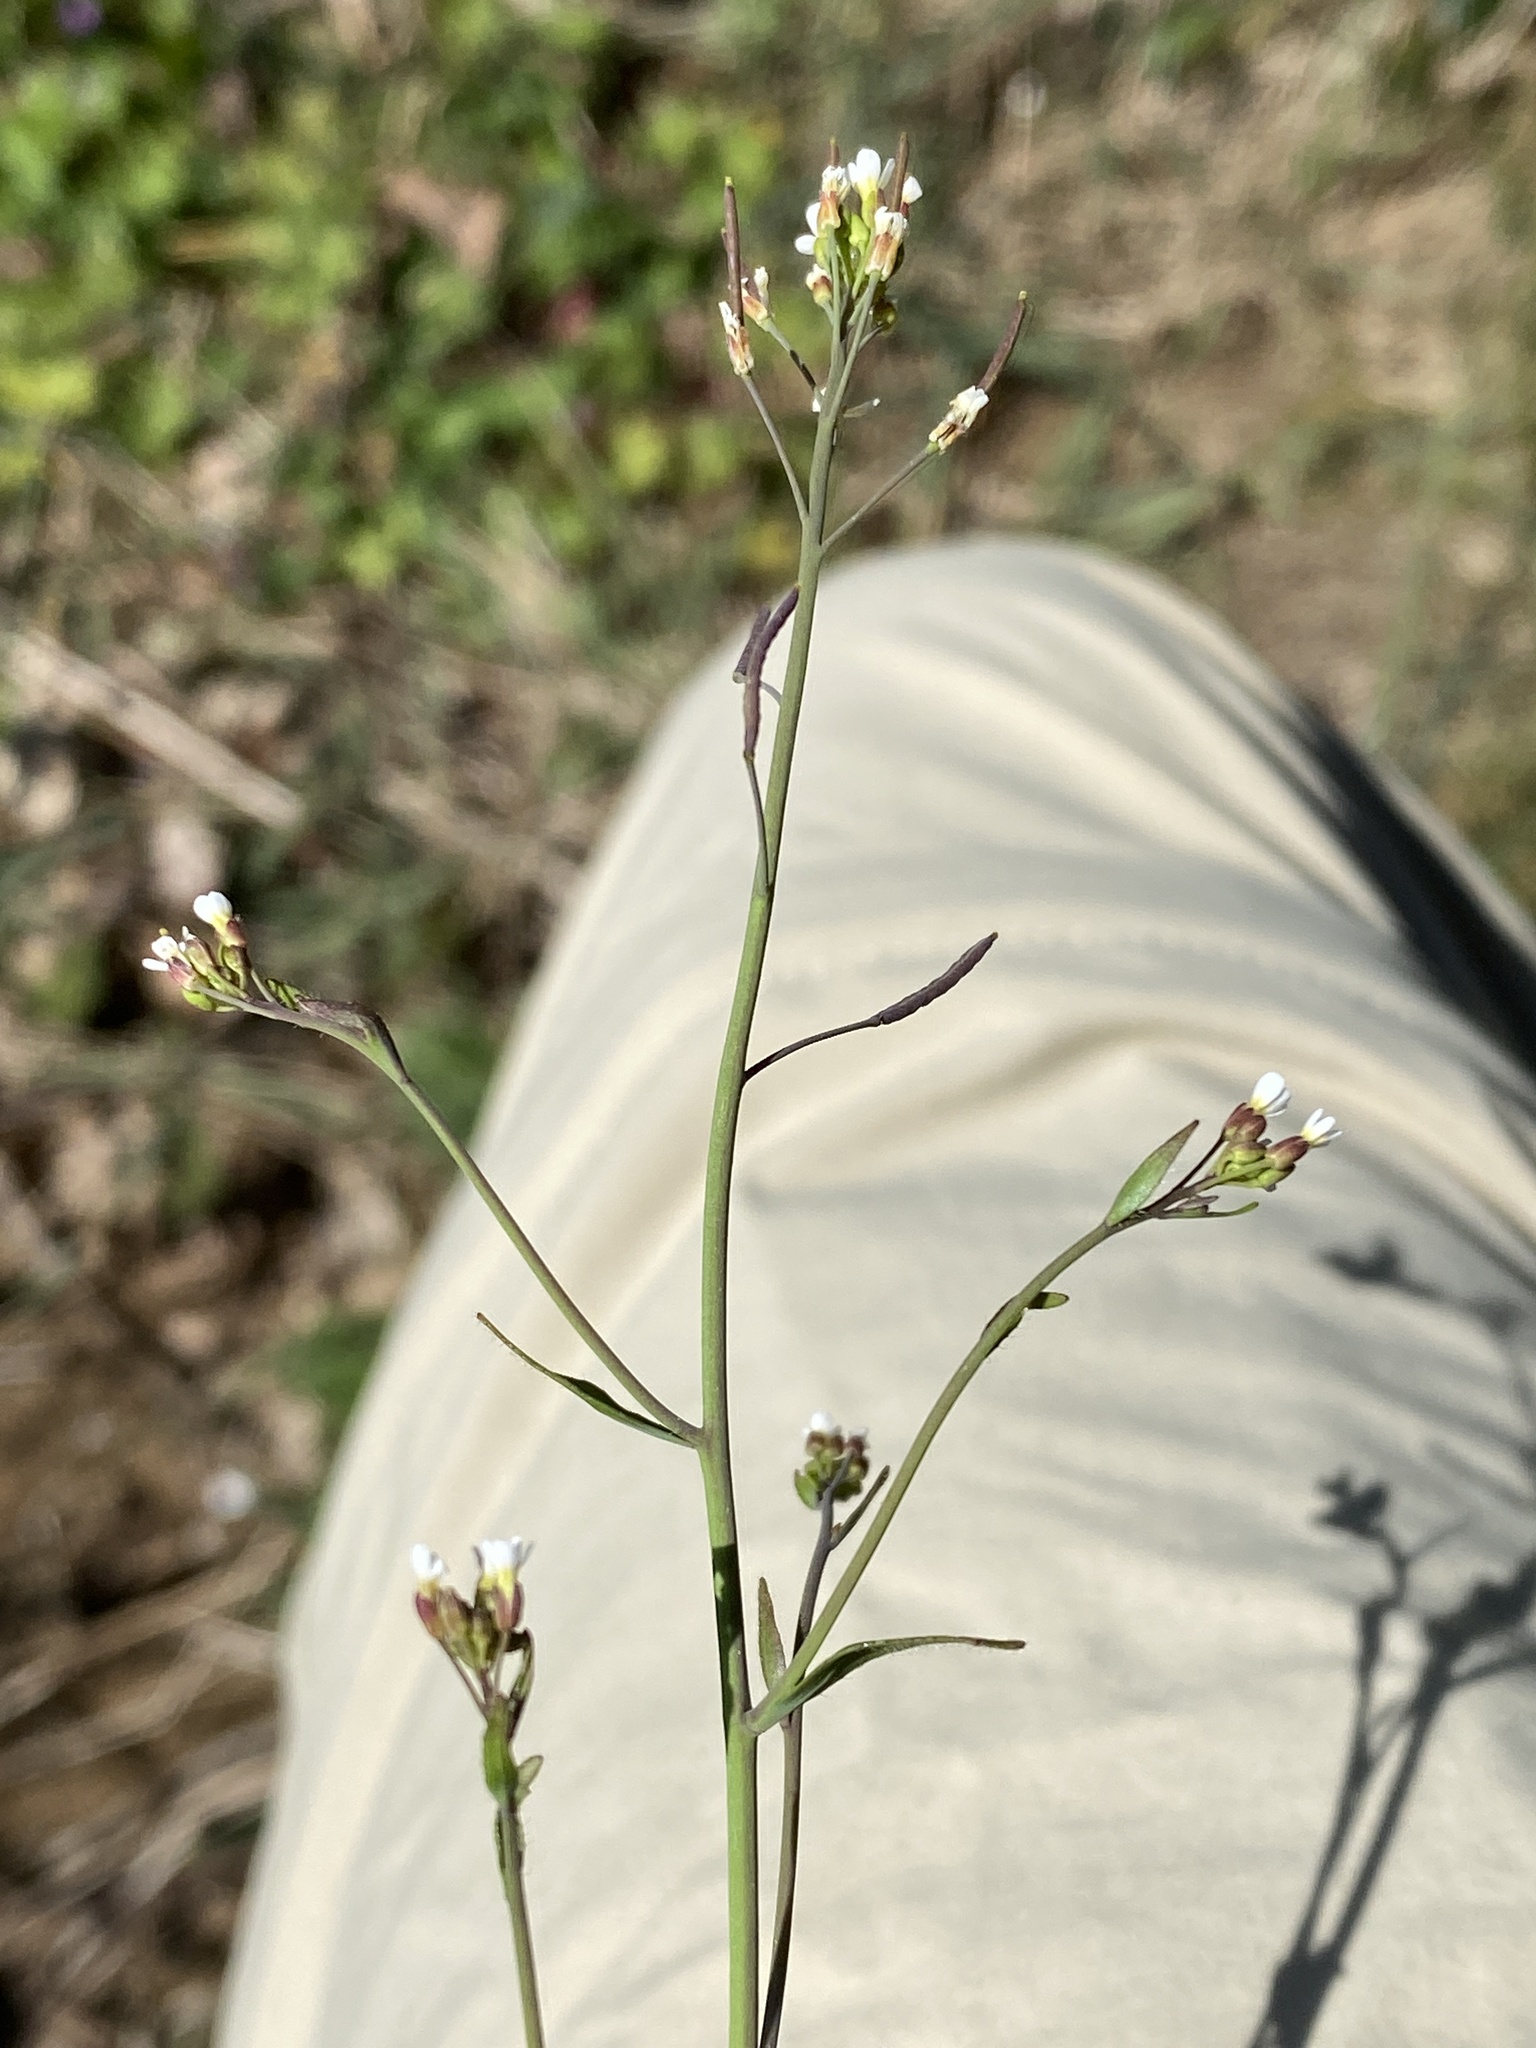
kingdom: Plantae
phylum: Tracheophyta
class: Magnoliopsida
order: Brassicales
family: Brassicaceae
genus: Arabidopsis
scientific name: Arabidopsis thaliana
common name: Thale cress
